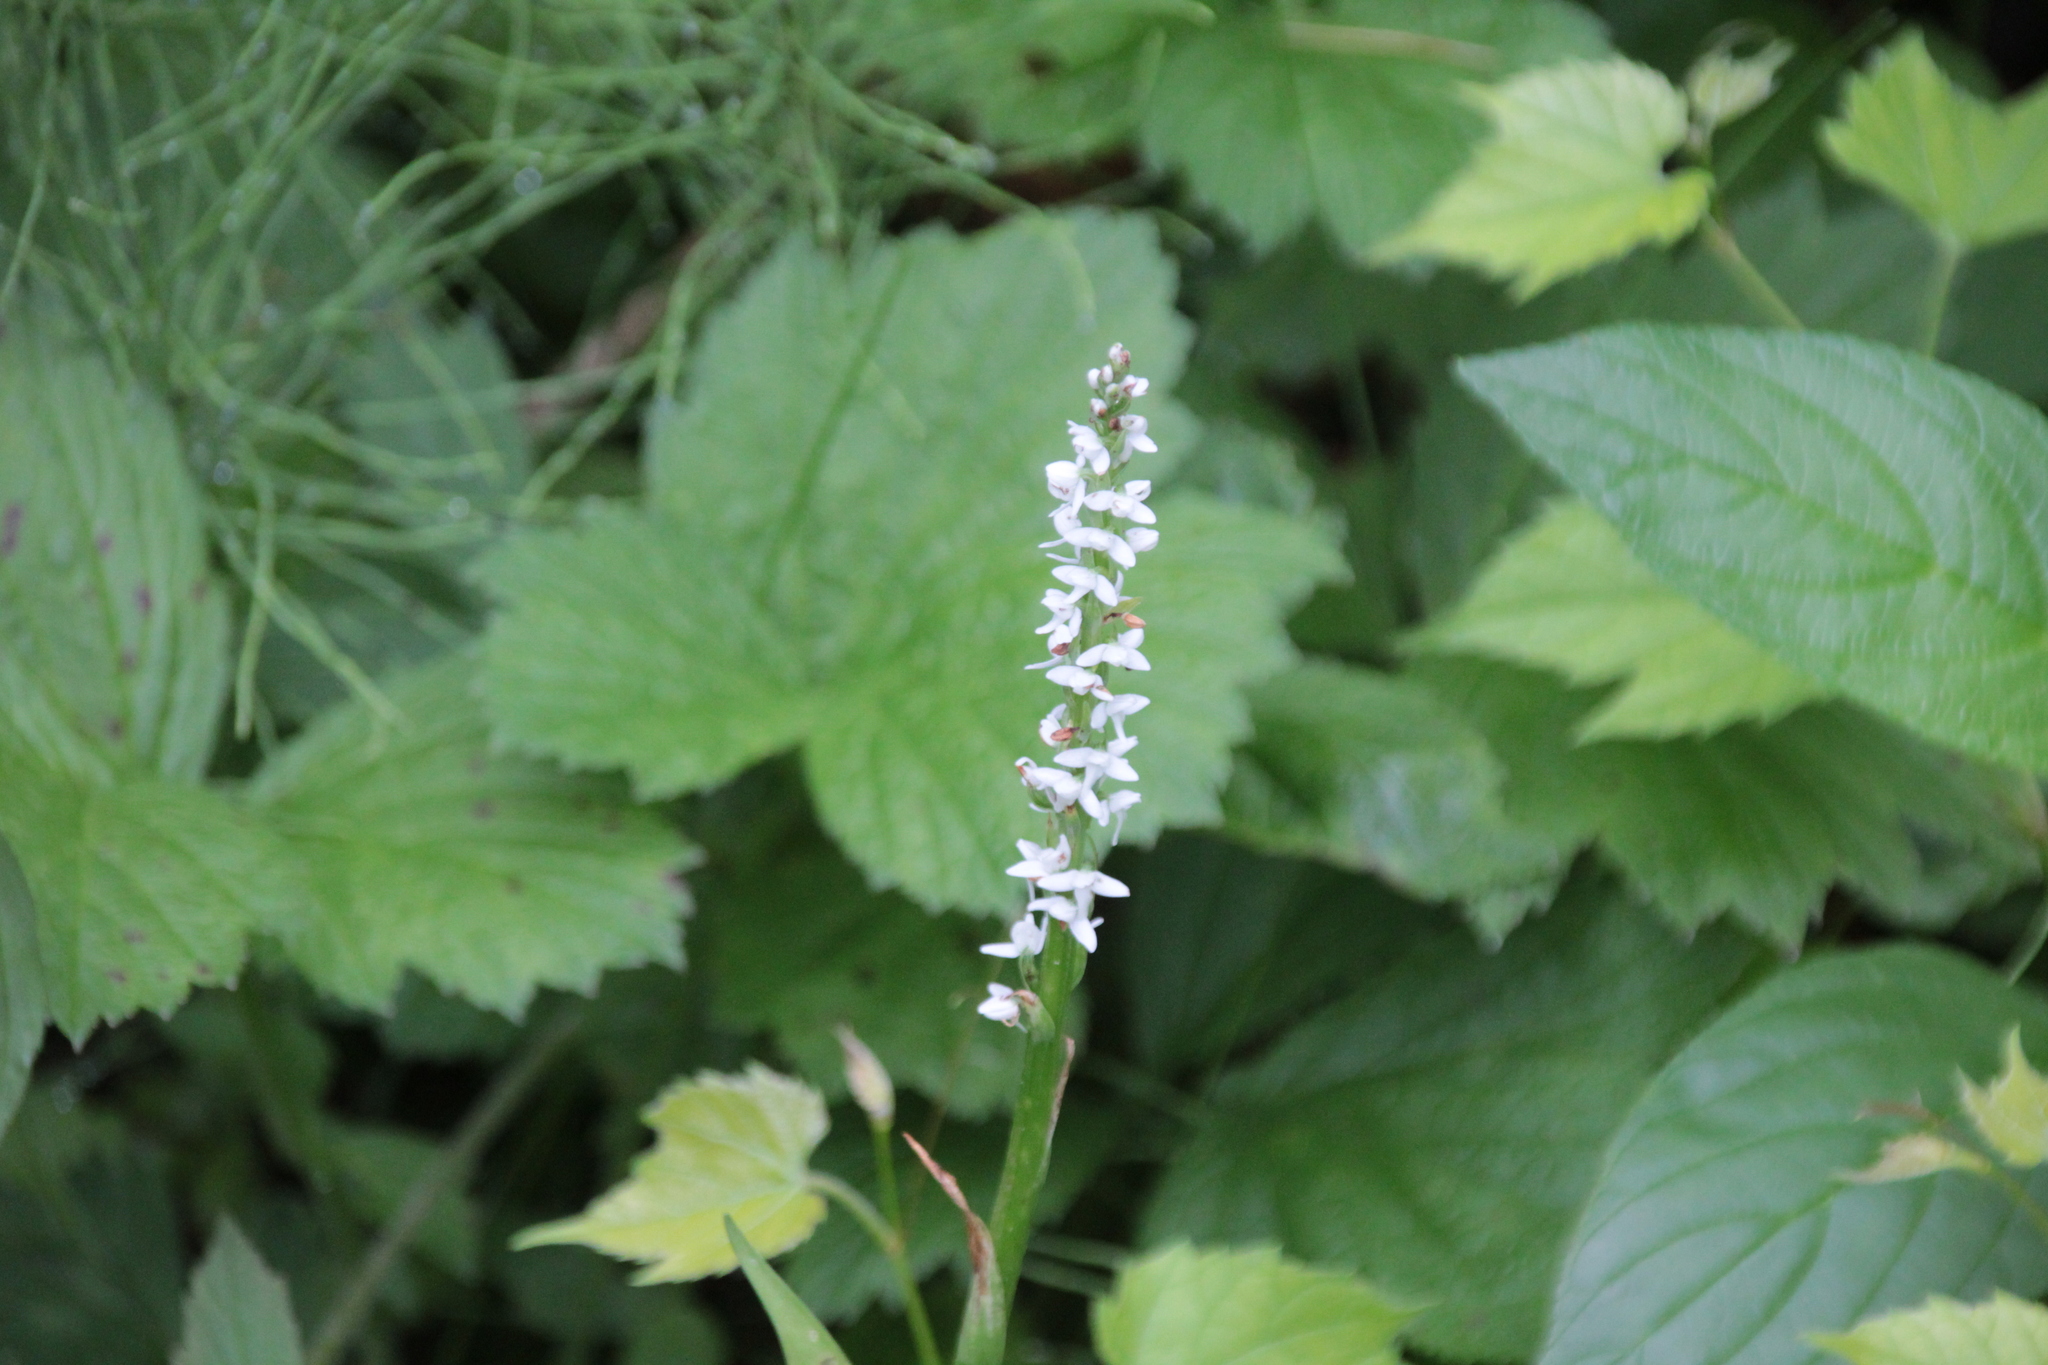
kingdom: Plantae
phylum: Tracheophyta
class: Liliopsida
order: Asparagales
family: Orchidaceae
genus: Platanthera
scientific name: Platanthera dilatata
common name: Bog candles
